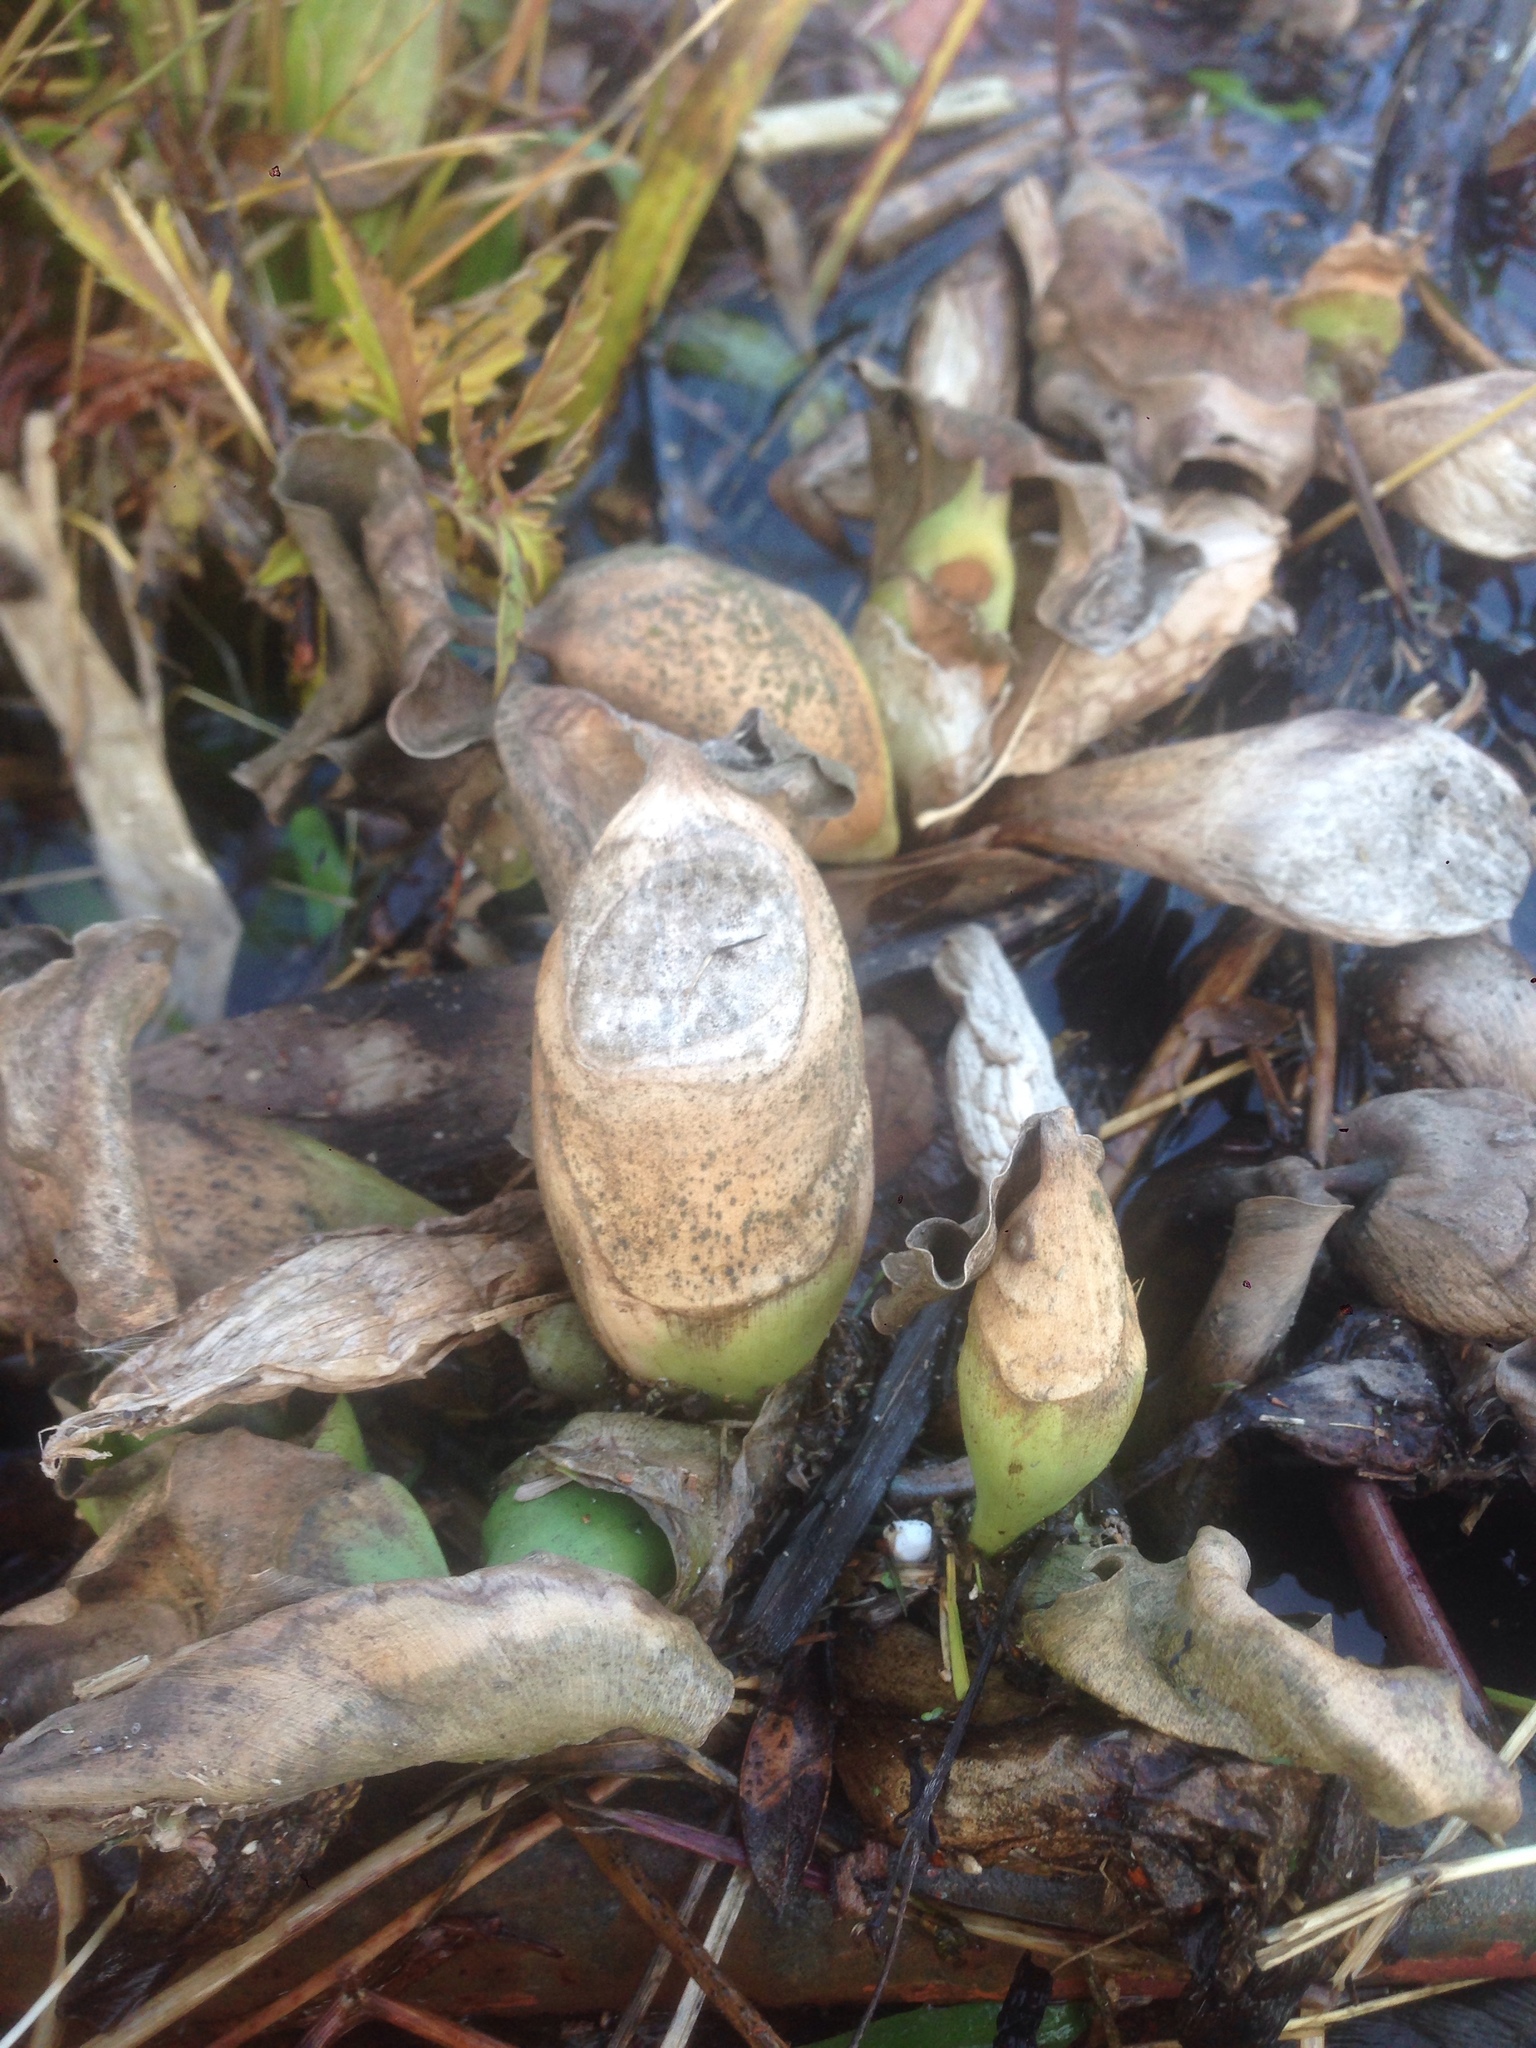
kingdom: Plantae
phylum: Tracheophyta
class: Liliopsida
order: Commelinales
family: Pontederiaceae
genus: Pontederia
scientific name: Pontederia crassipes
